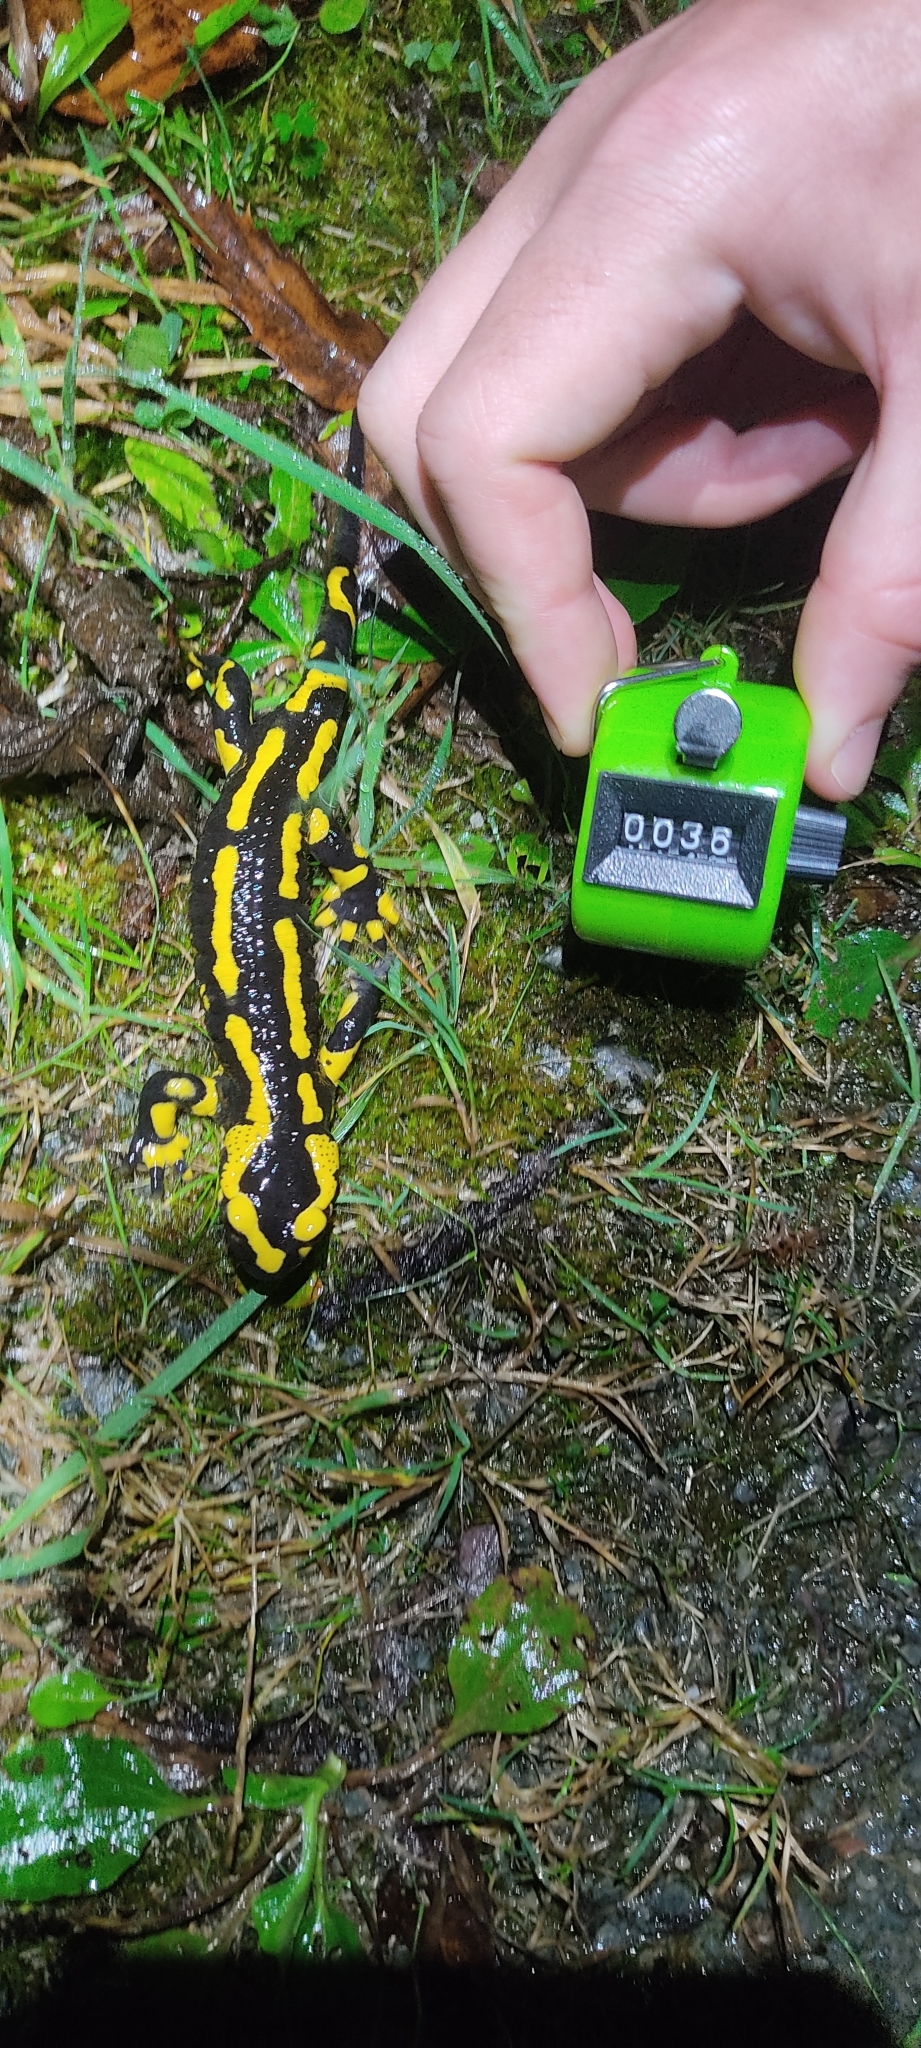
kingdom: Animalia
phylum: Chordata
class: Amphibia
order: Caudata
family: Salamandridae
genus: Salamandra
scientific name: Salamandra salamandra
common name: Fire salamander
